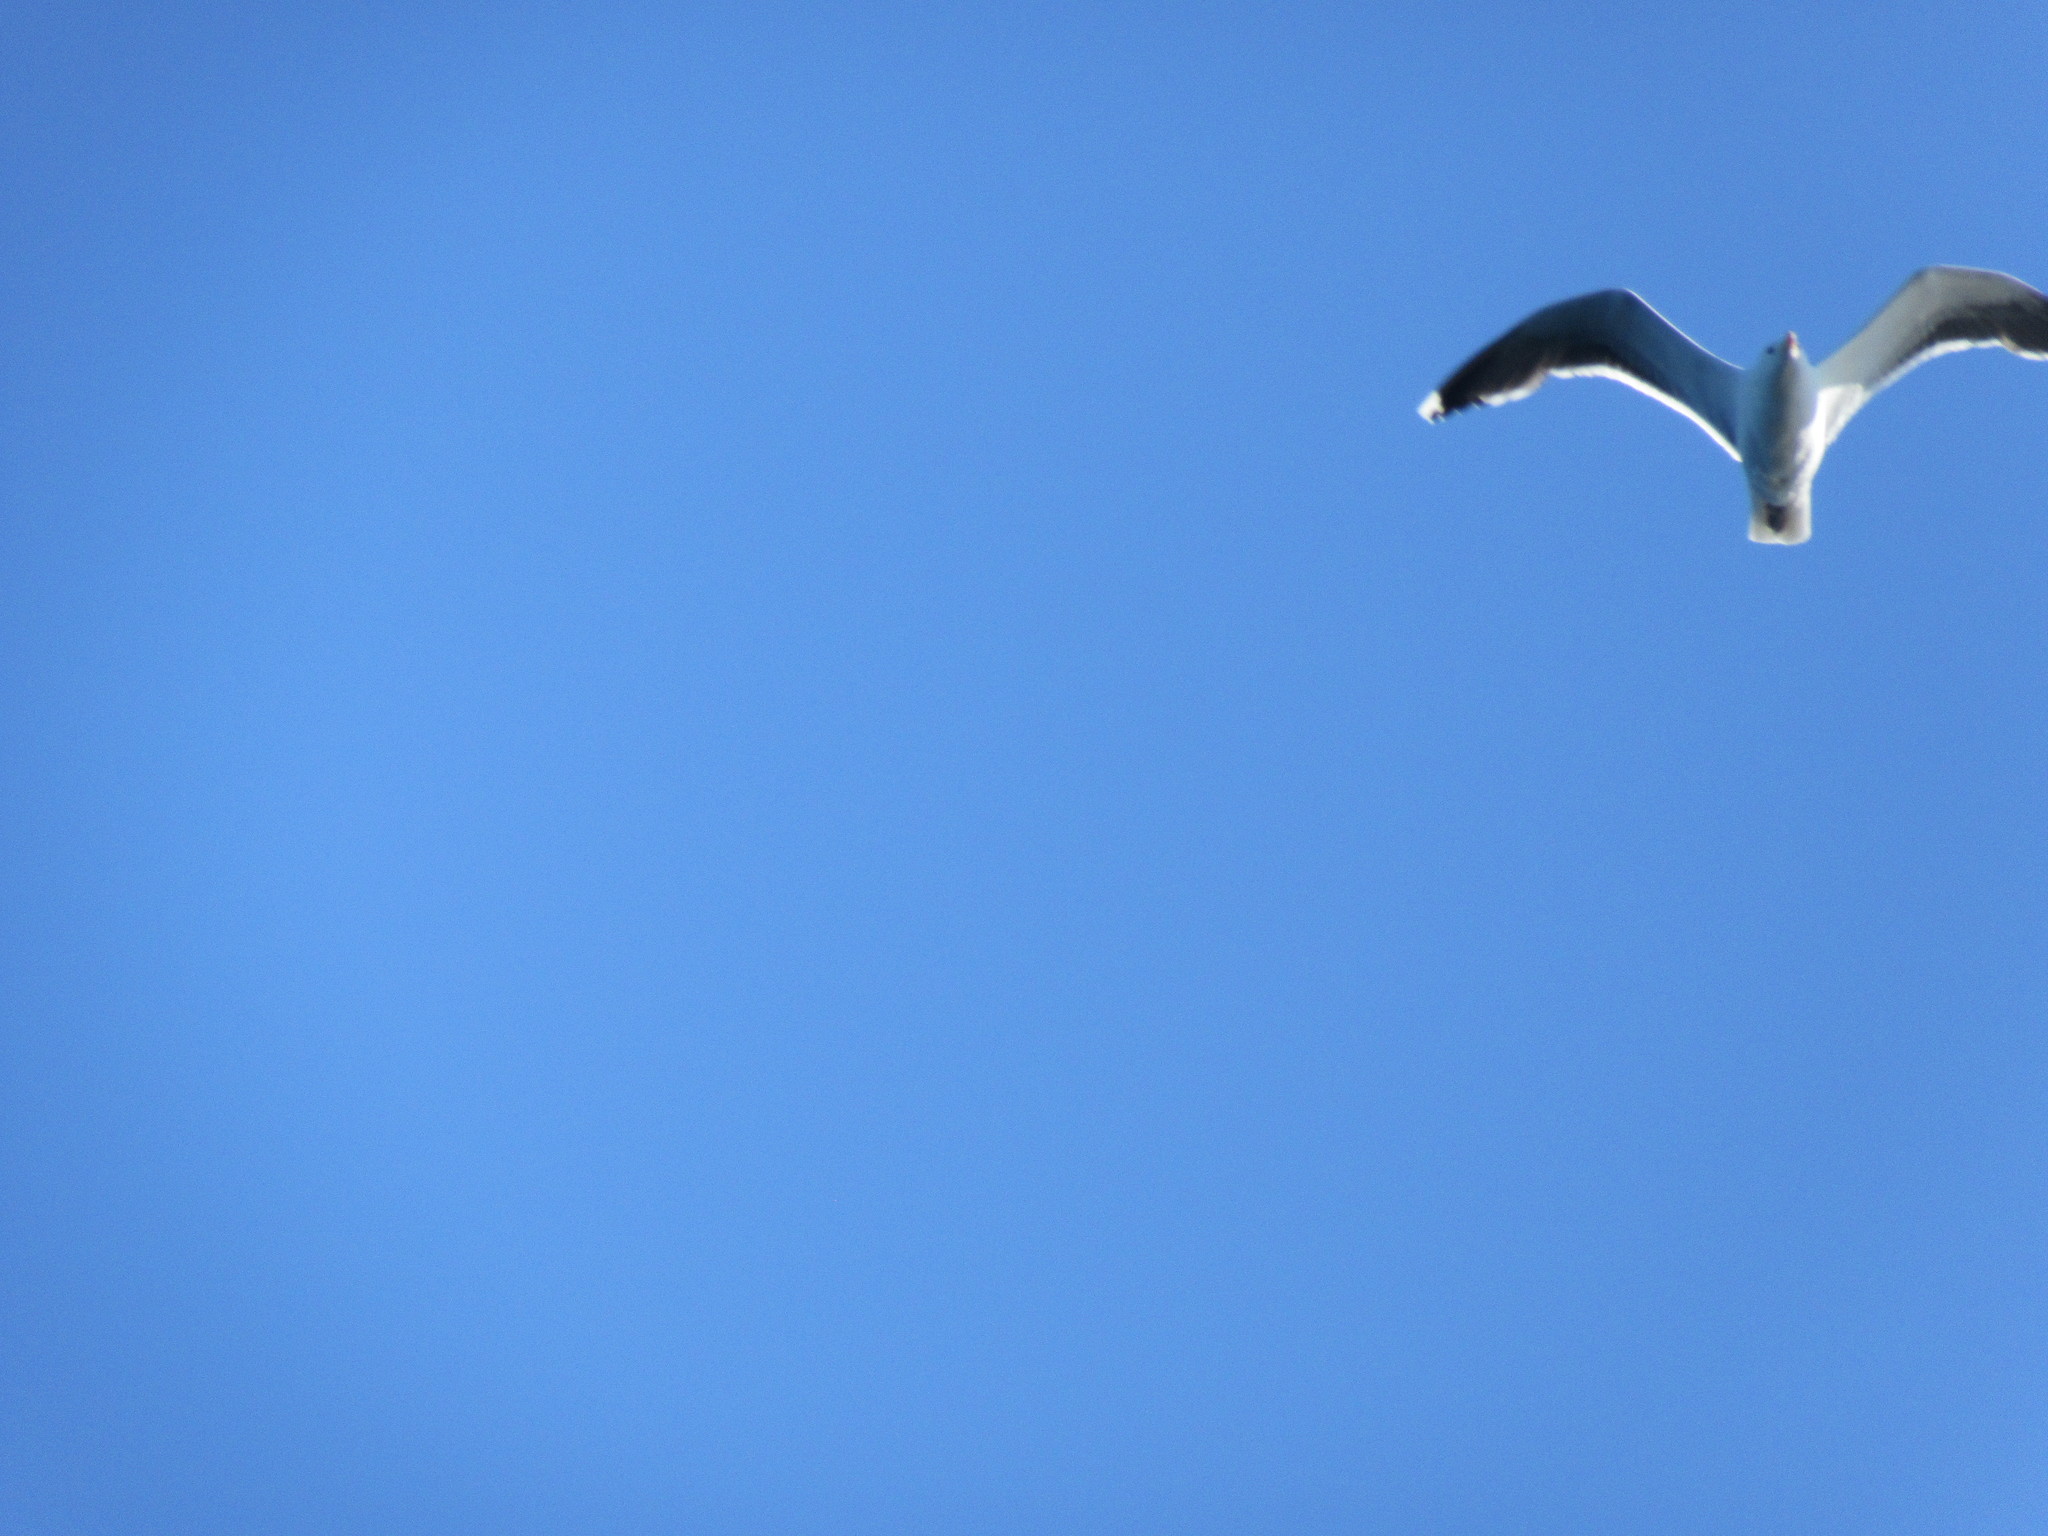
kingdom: Animalia
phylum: Chordata
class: Aves
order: Charadriiformes
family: Laridae
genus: Larus
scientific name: Larus marinus
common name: Great black-backed gull
